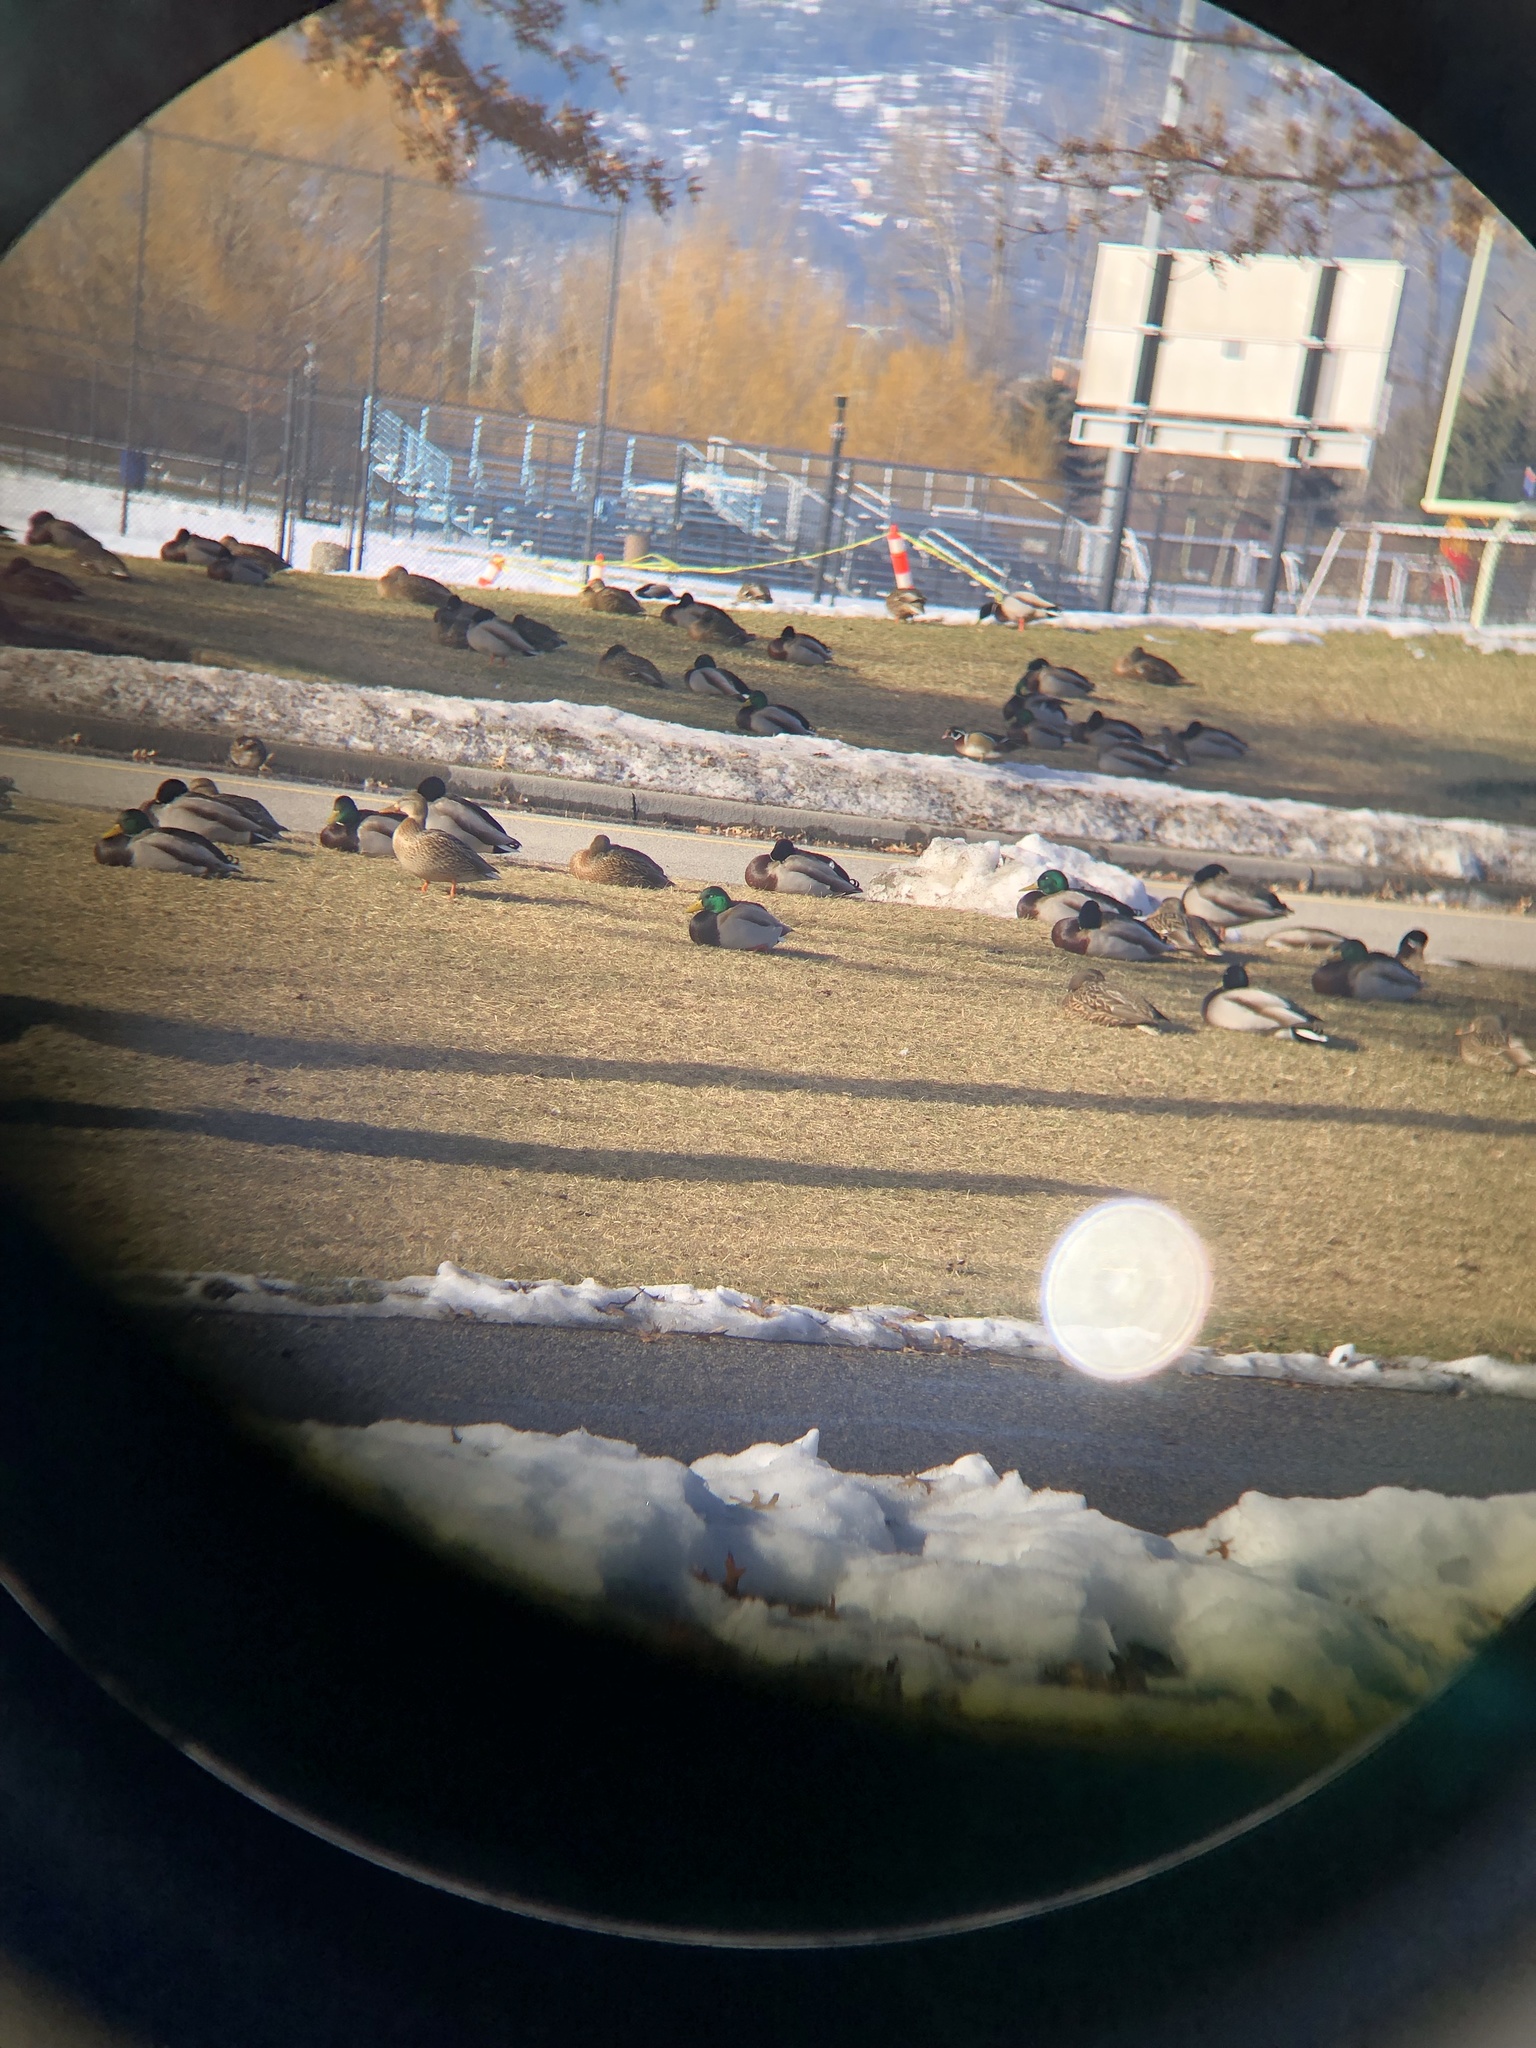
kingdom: Animalia
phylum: Chordata
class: Aves
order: Anseriformes
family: Anatidae
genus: Aix
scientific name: Aix sponsa
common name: Wood duck
